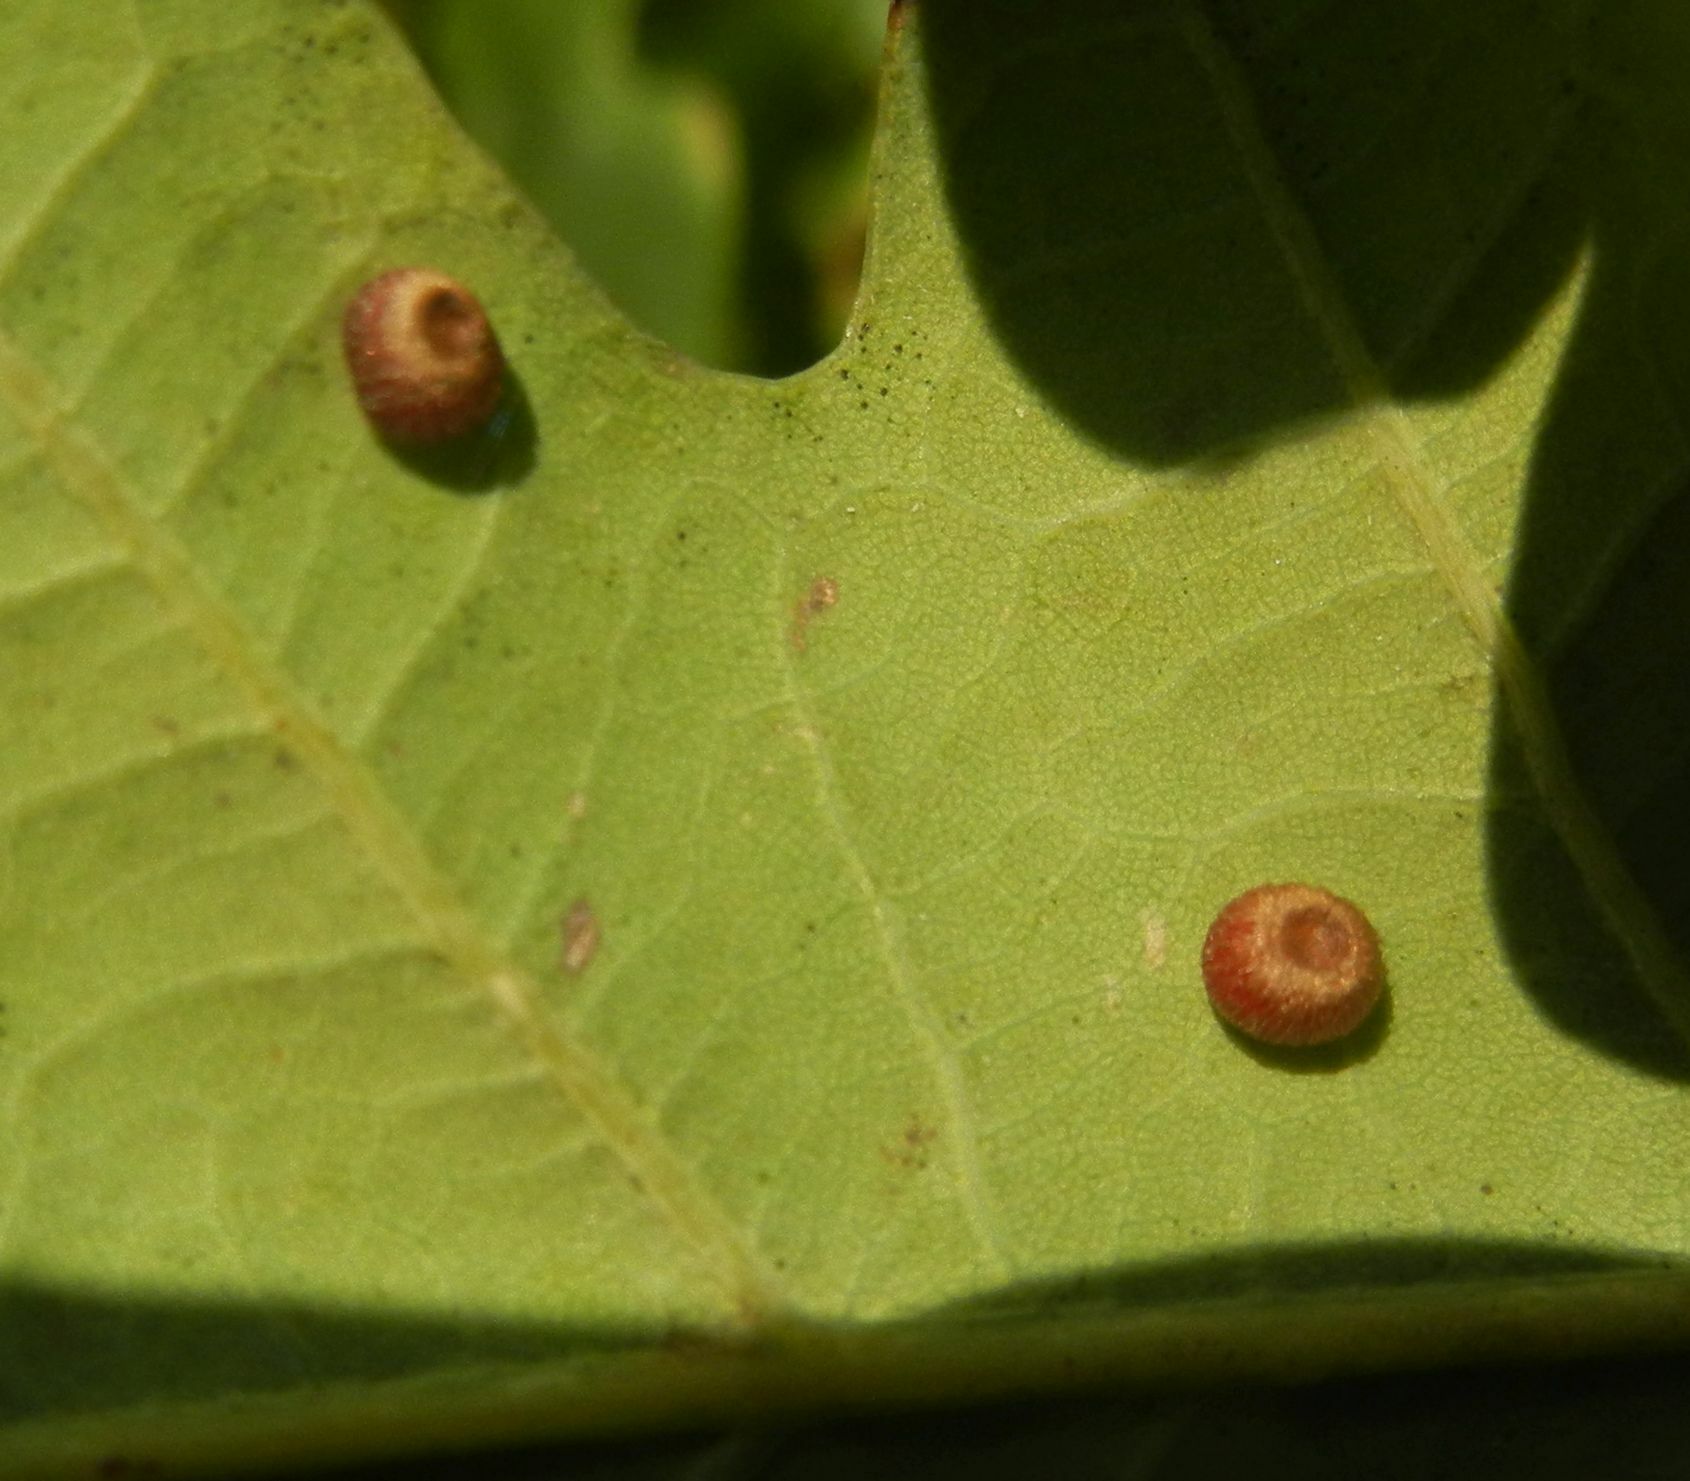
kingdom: Animalia
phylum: Arthropoda
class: Insecta
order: Hymenoptera
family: Cynipidae
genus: Neuroterus
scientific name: Neuroterus numismalis
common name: Silk-button spangle gall
